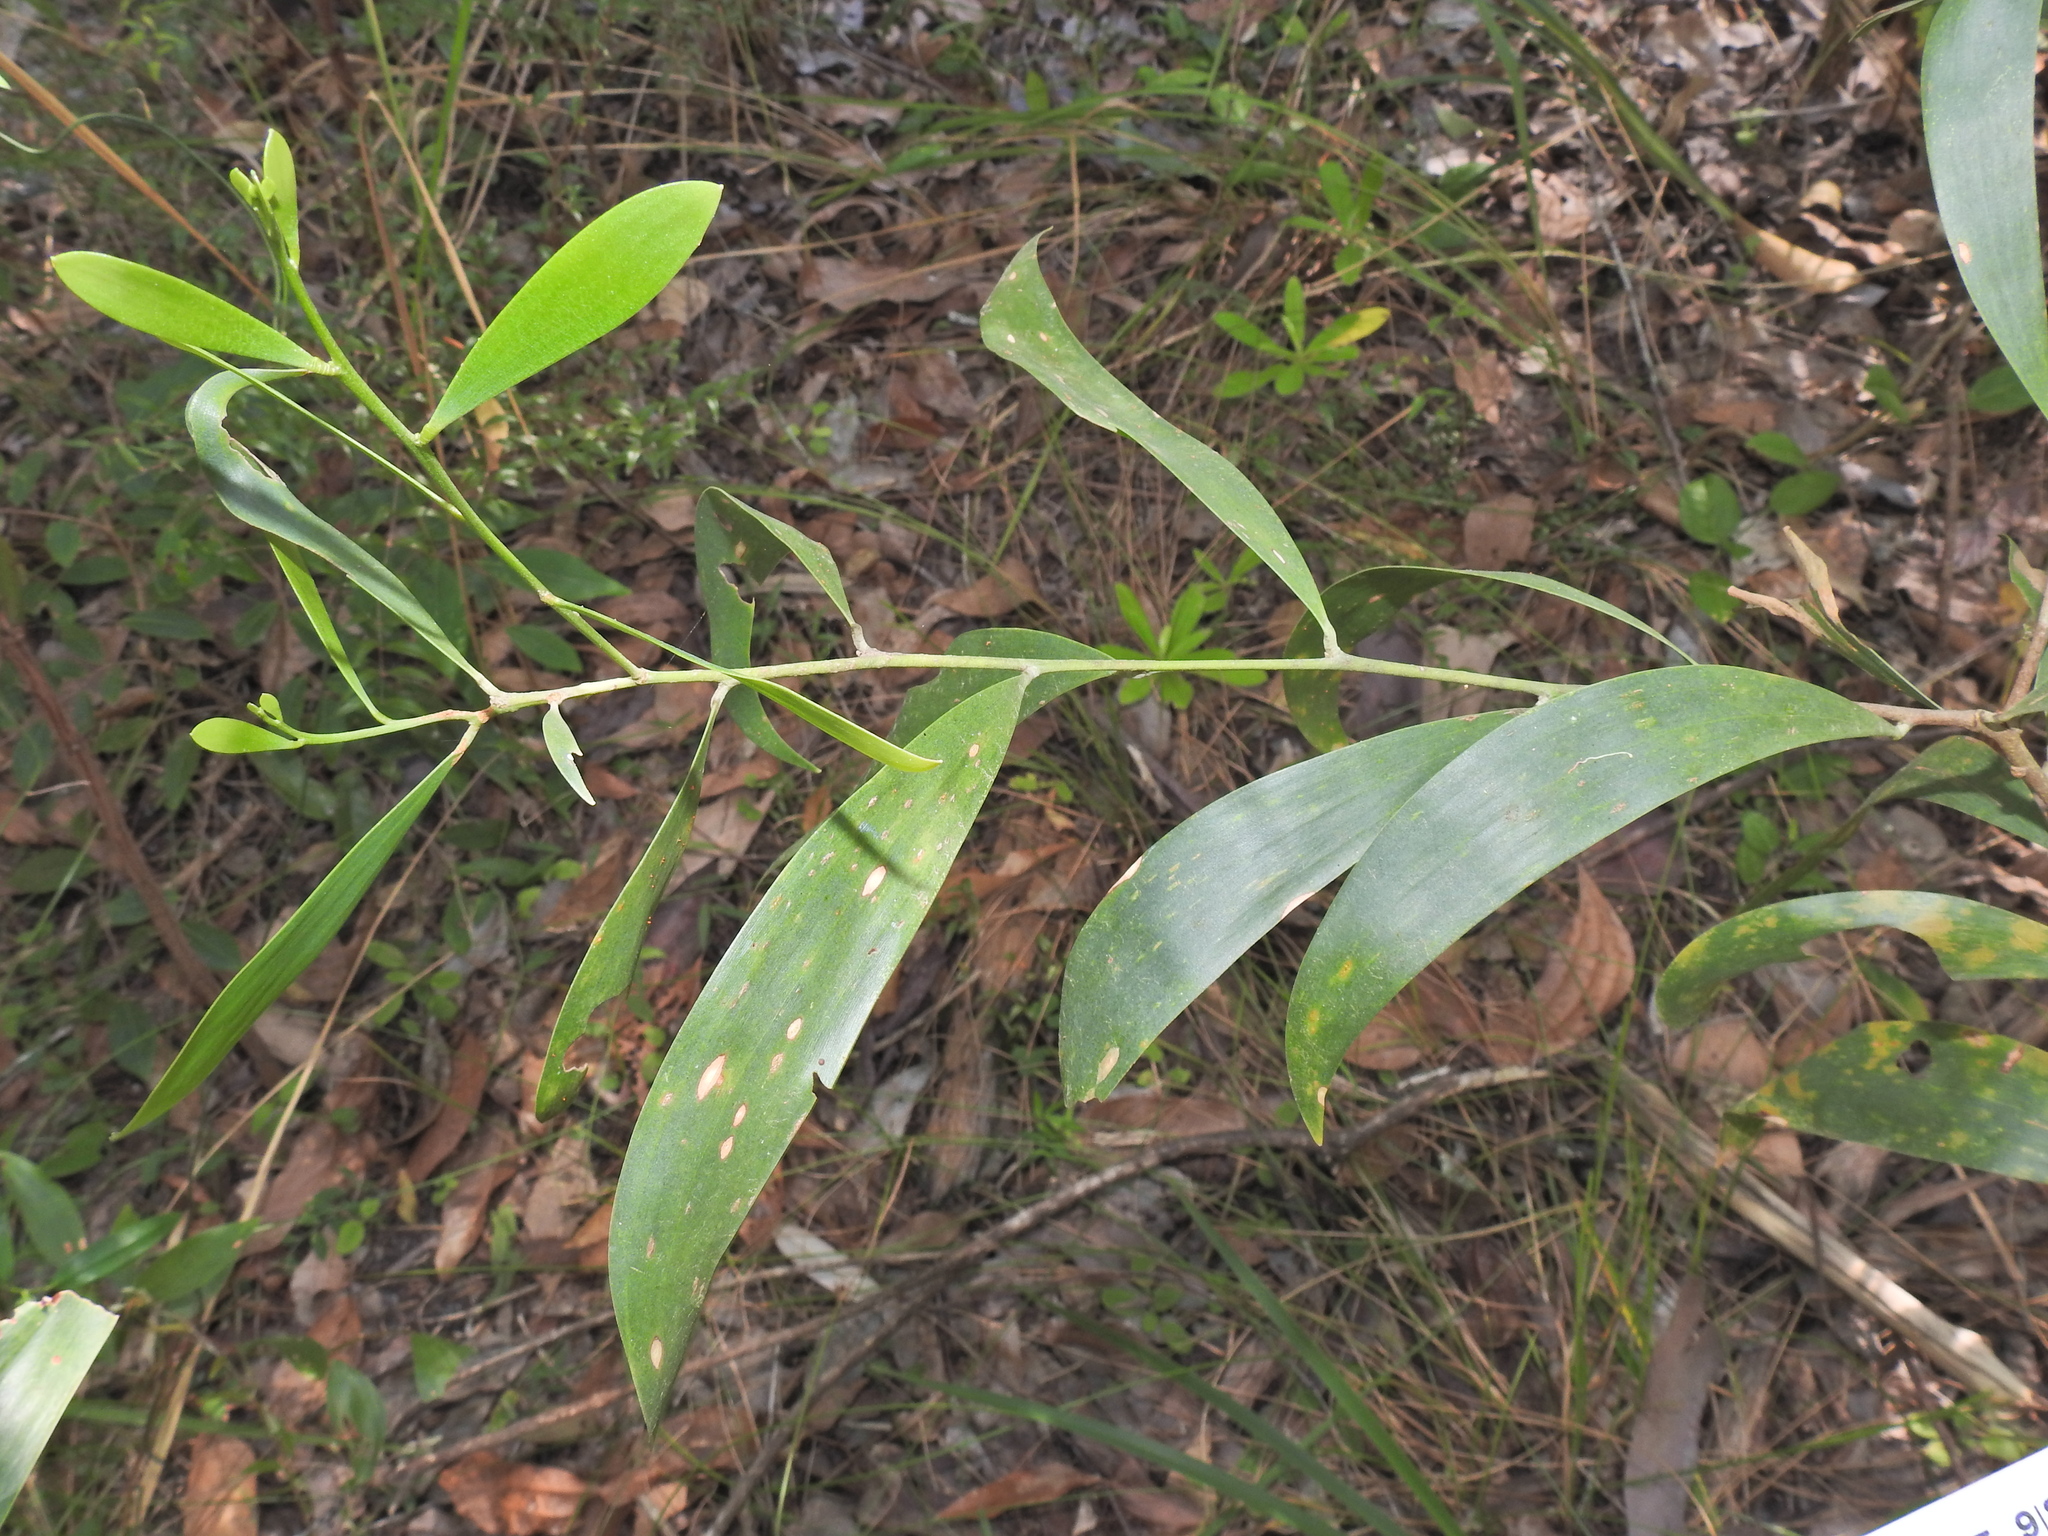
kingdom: Plantae
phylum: Tracheophyta
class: Magnoliopsida
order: Fabales
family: Fabaceae
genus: Acacia
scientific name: Acacia disparrima
